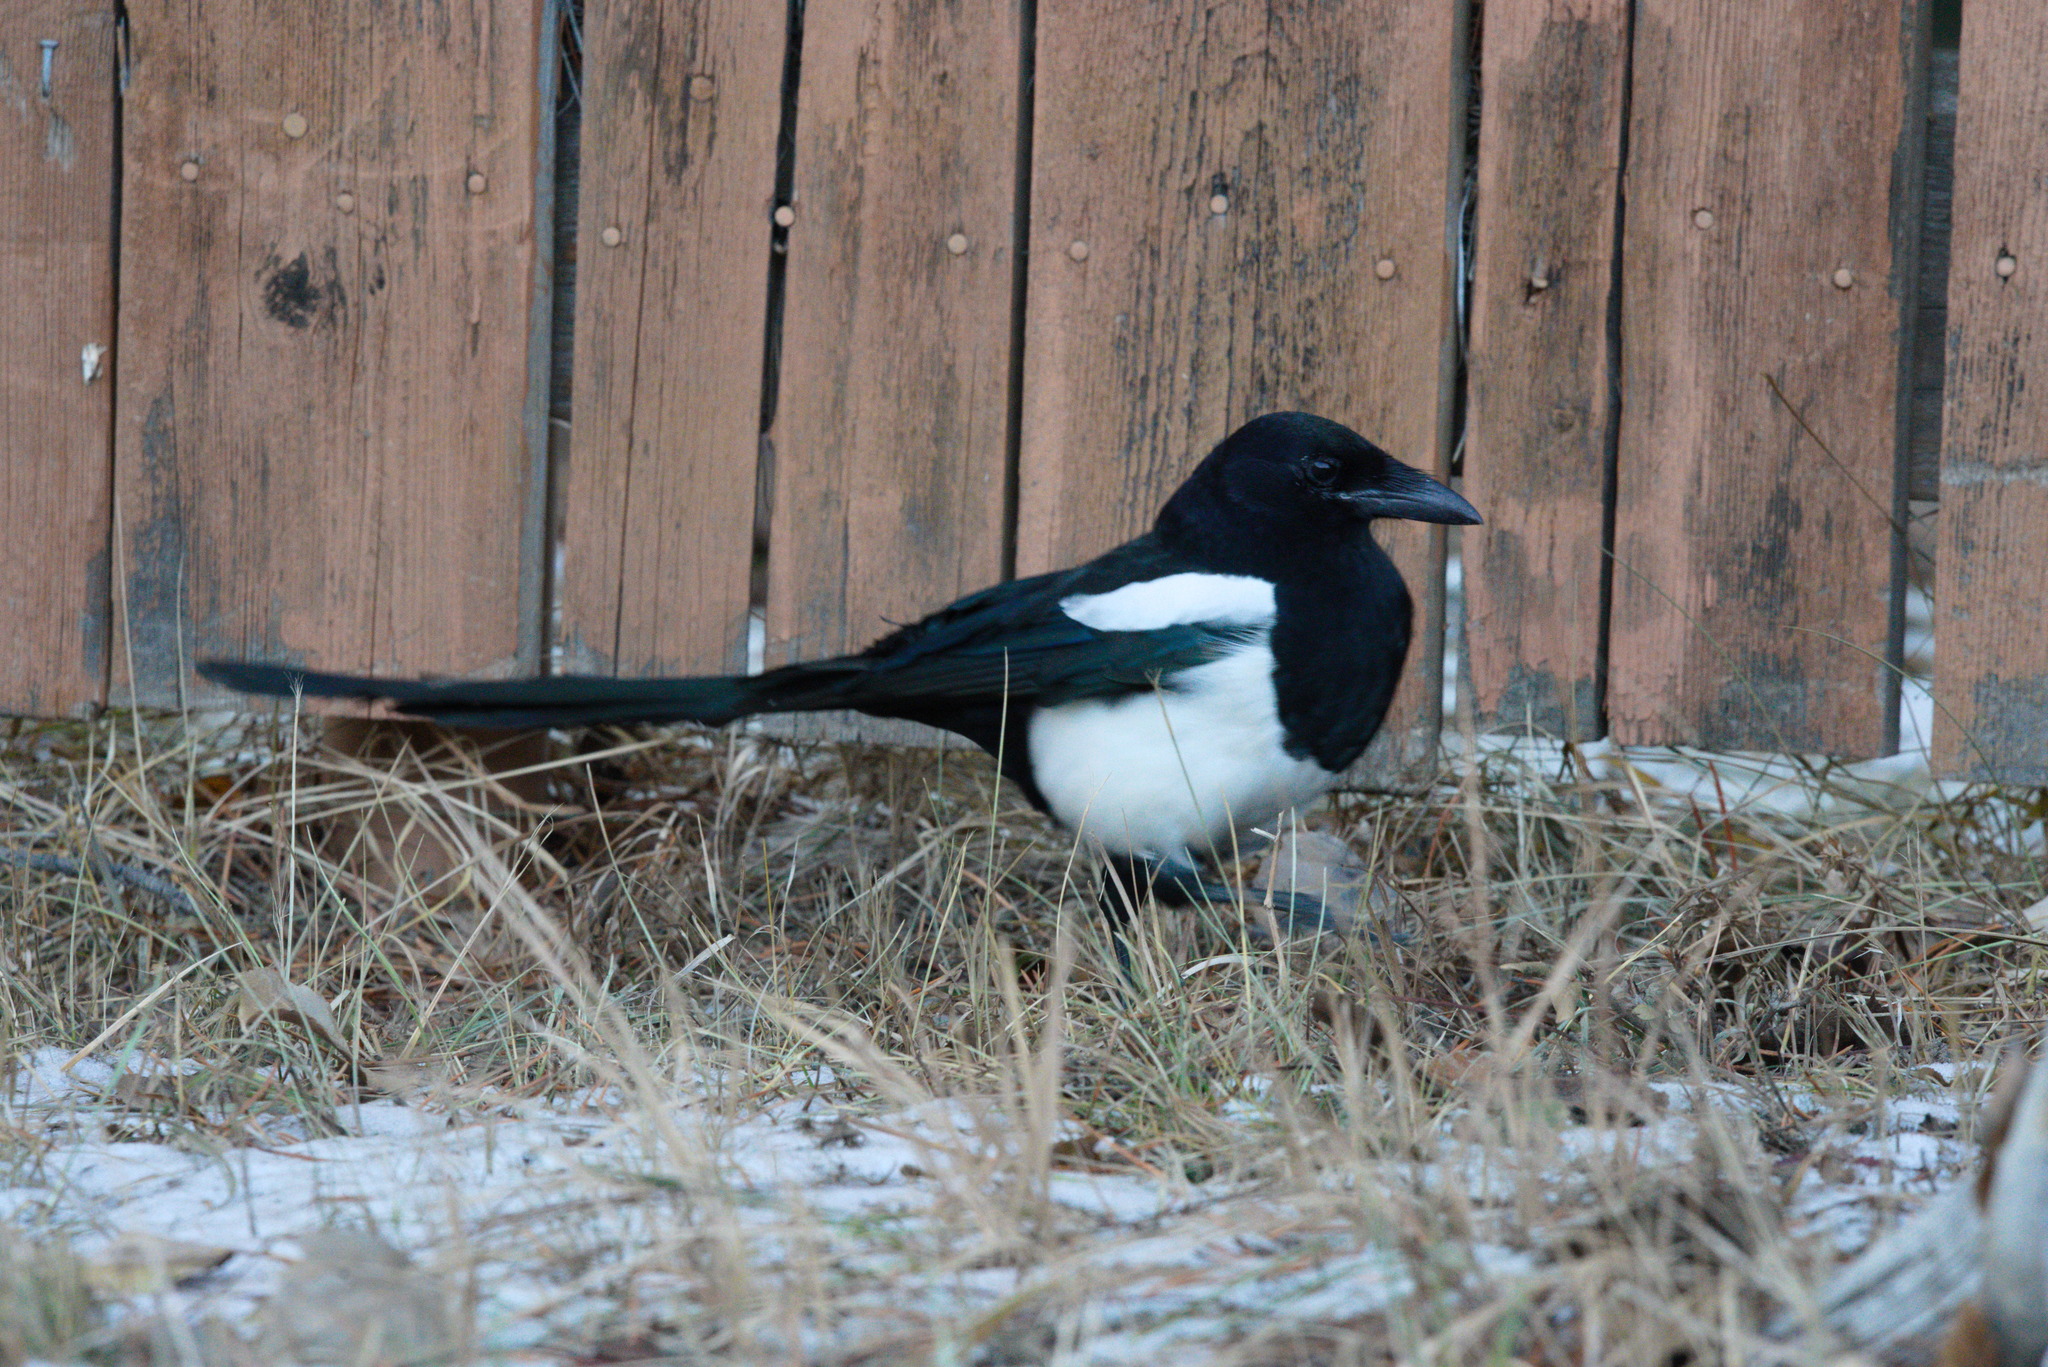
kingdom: Animalia
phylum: Chordata
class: Aves
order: Passeriformes
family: Corvidae
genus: Pica
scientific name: Pica hudsonia
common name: Black-billed magpie
